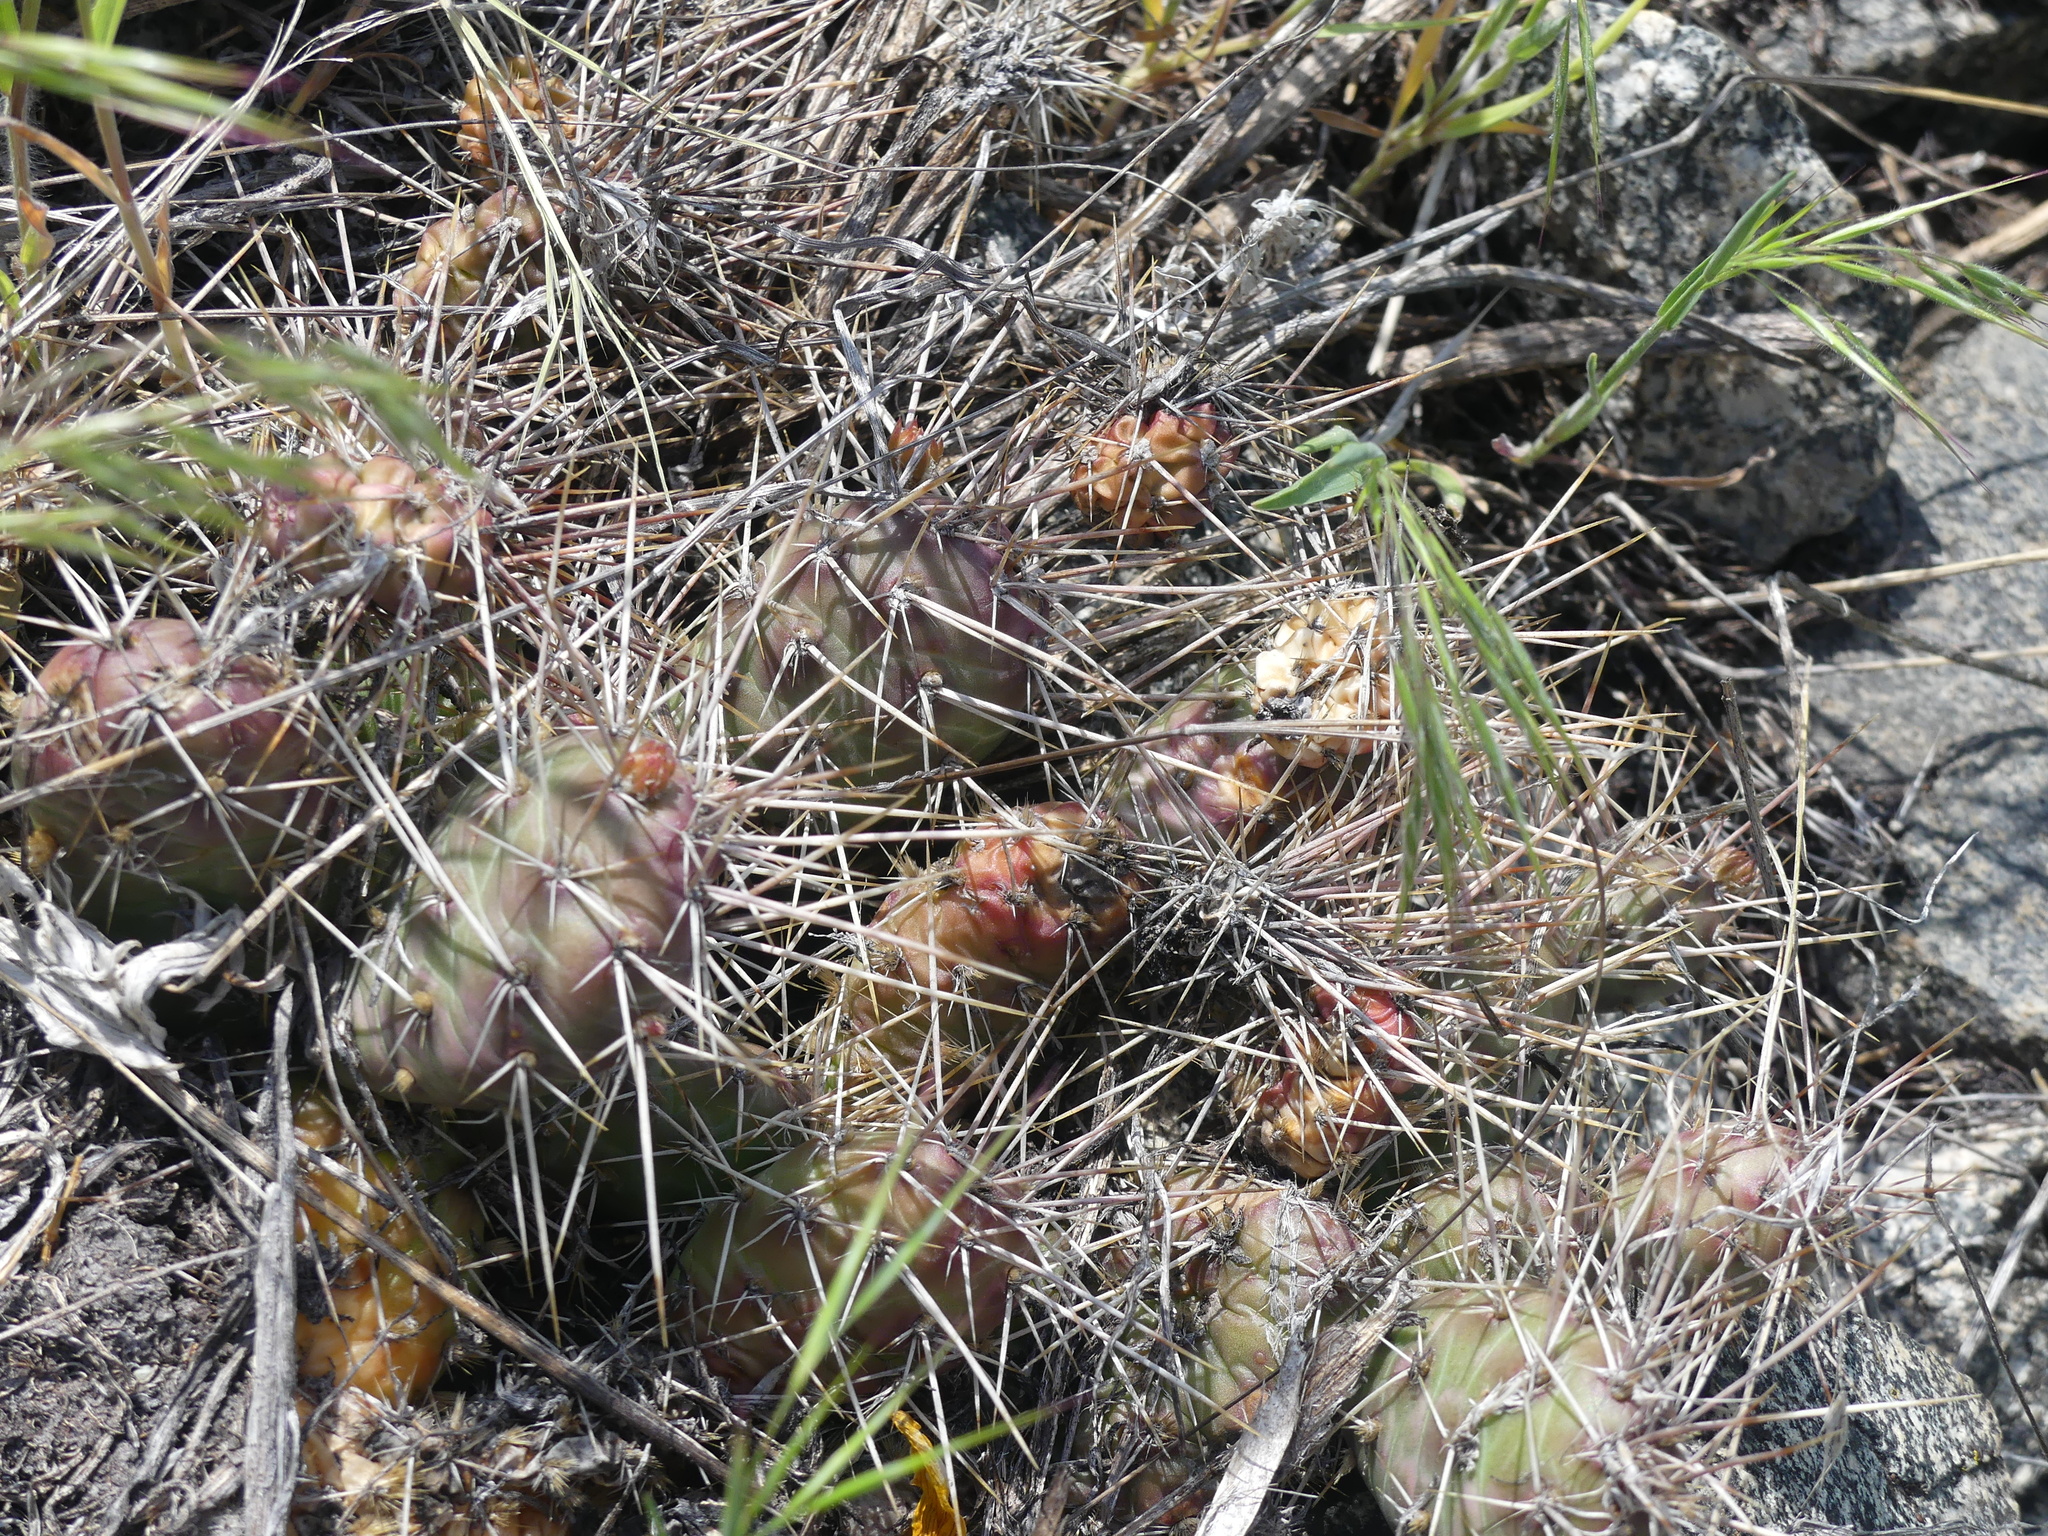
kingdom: Plantae
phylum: Tracheophyta
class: Magnoliopsida
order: Caryophyllales
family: Cactaceae
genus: Opuntia
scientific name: Opuntia fragilis
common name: Brittle cactus
